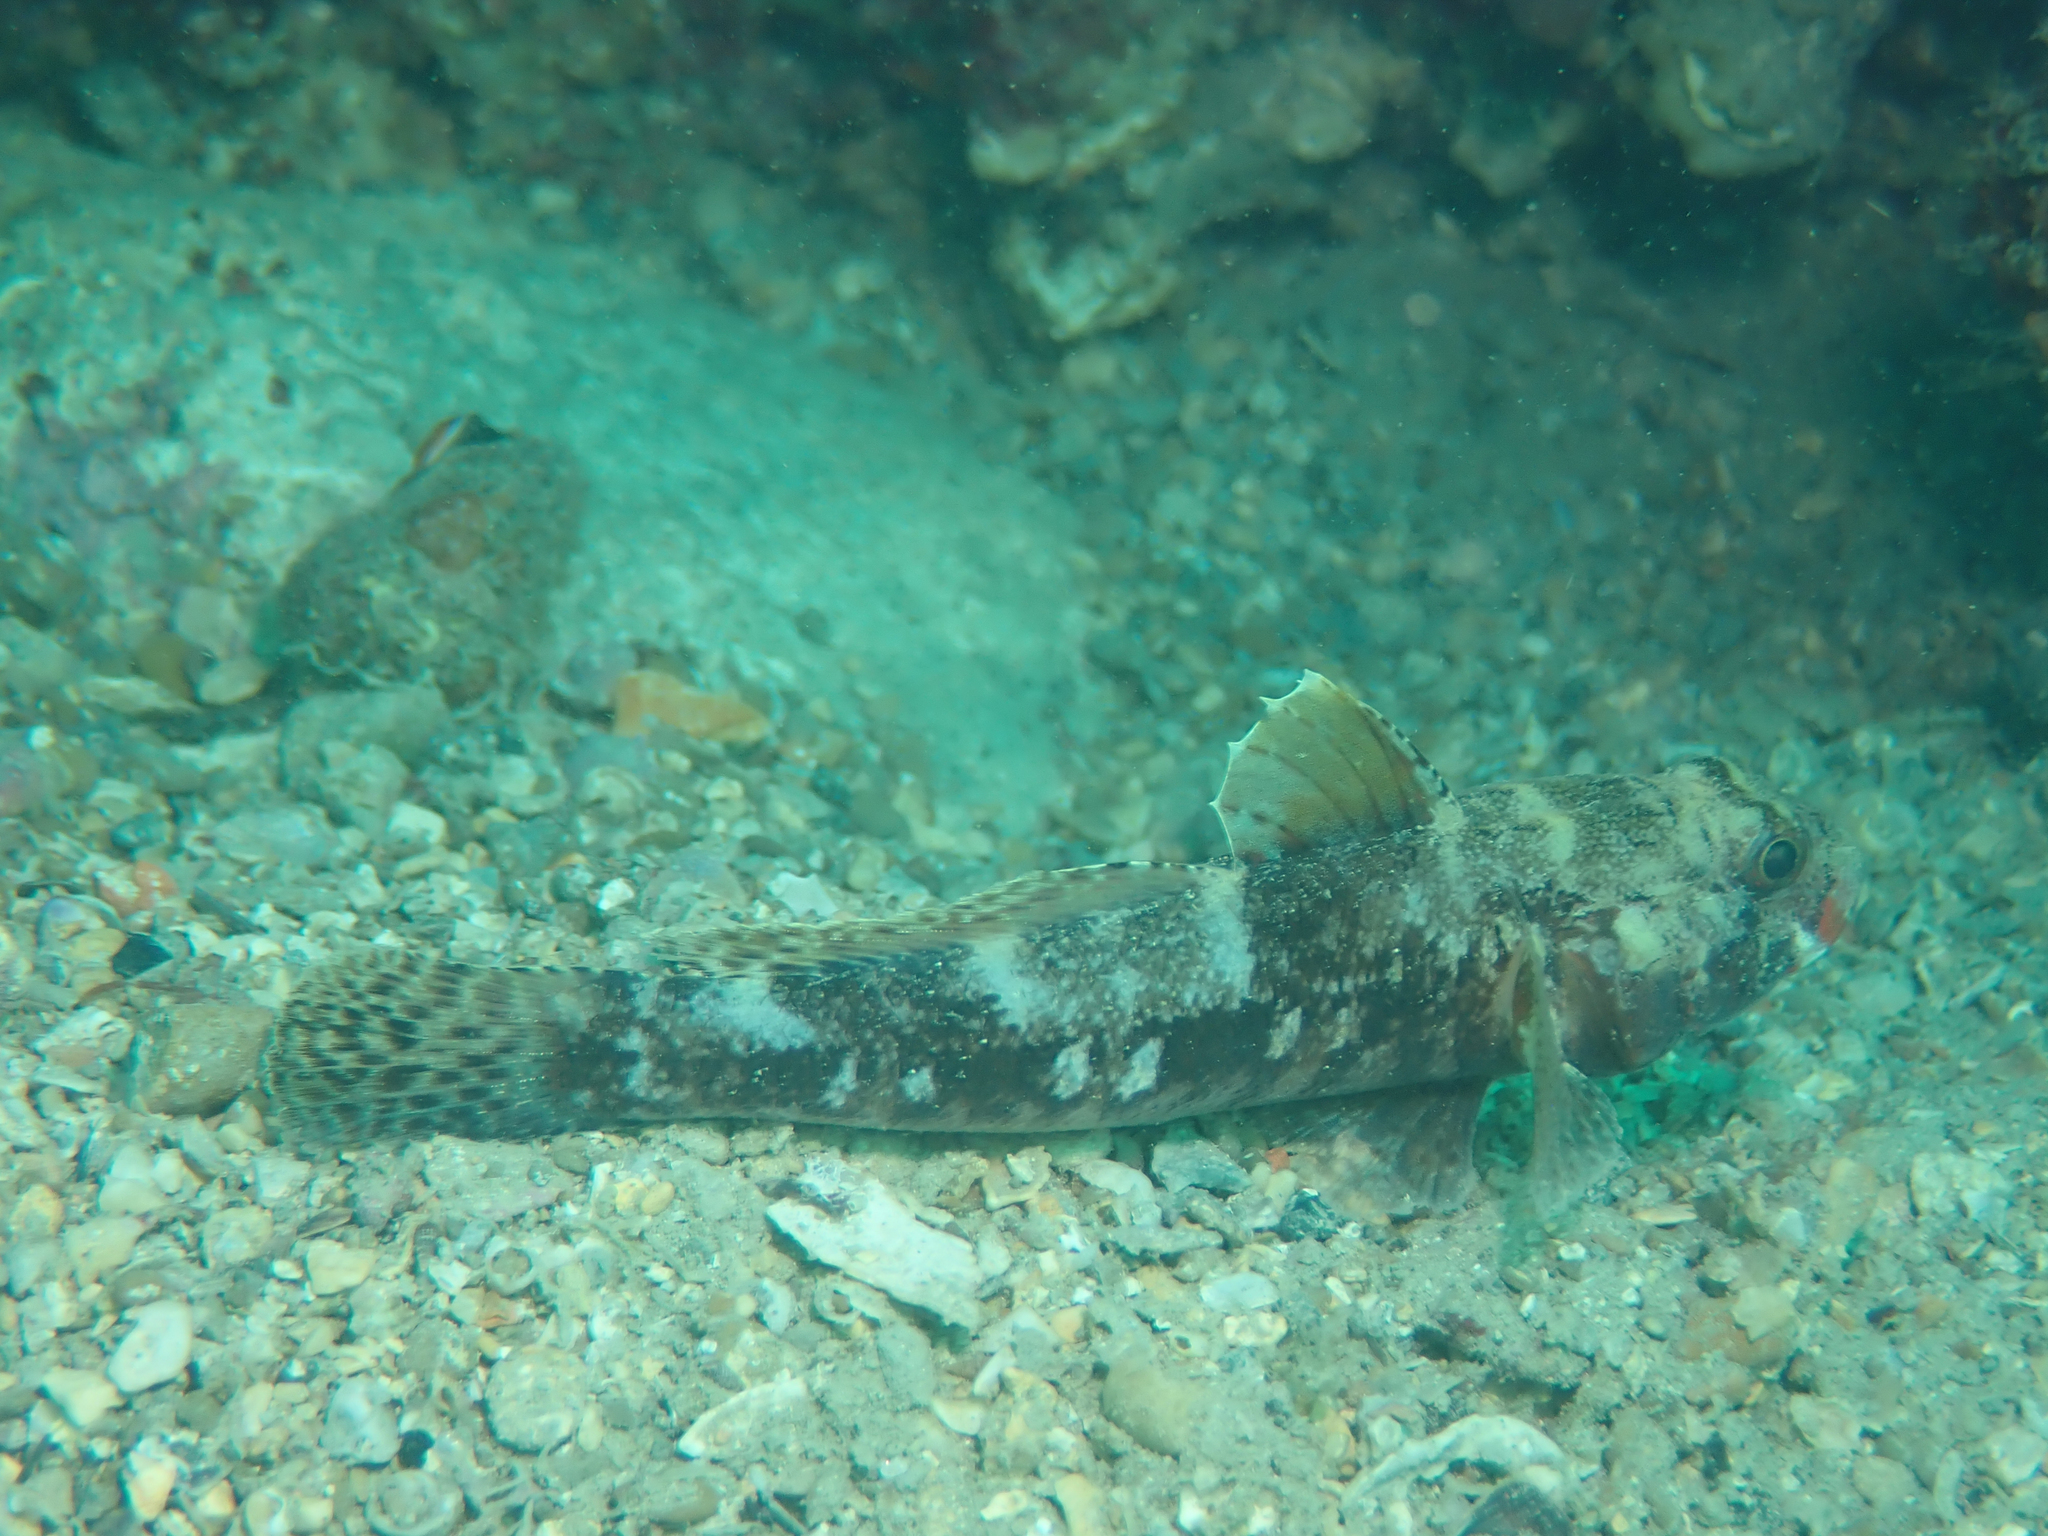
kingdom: Animalia
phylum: Chordata
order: Perciformes
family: Gobiidae
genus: Gobius
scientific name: Gobius cruentatus
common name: Red-mouthed goby
